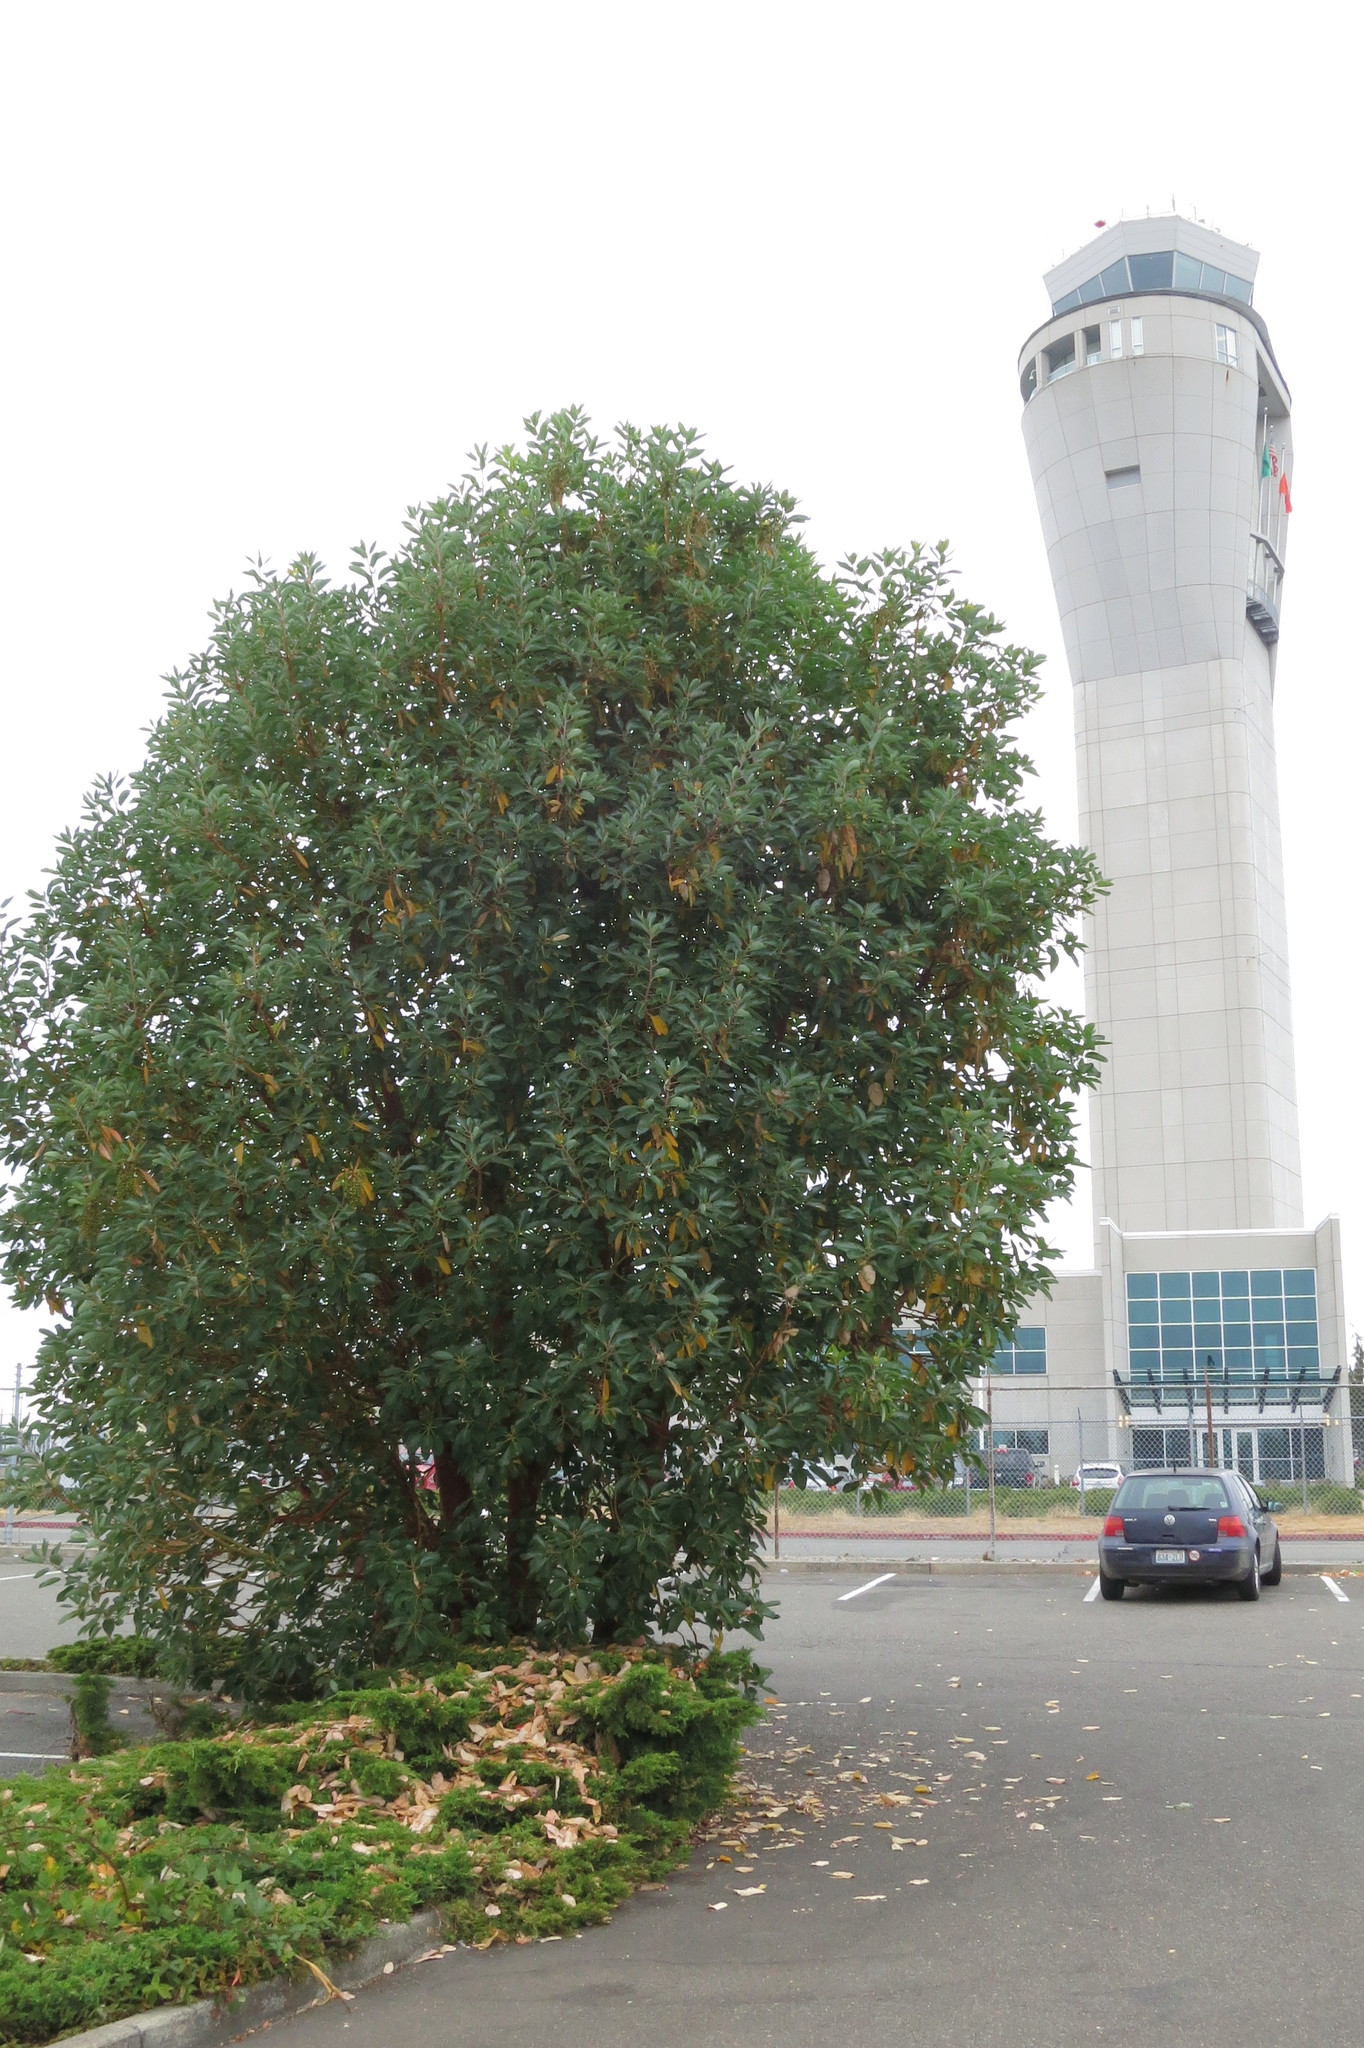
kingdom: Plantae
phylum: Tracheophyta
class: Magnoliopsida
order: Ericales
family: Ericaceae
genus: Arbutus
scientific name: Arbutus menziesii
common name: Pacific madrone
